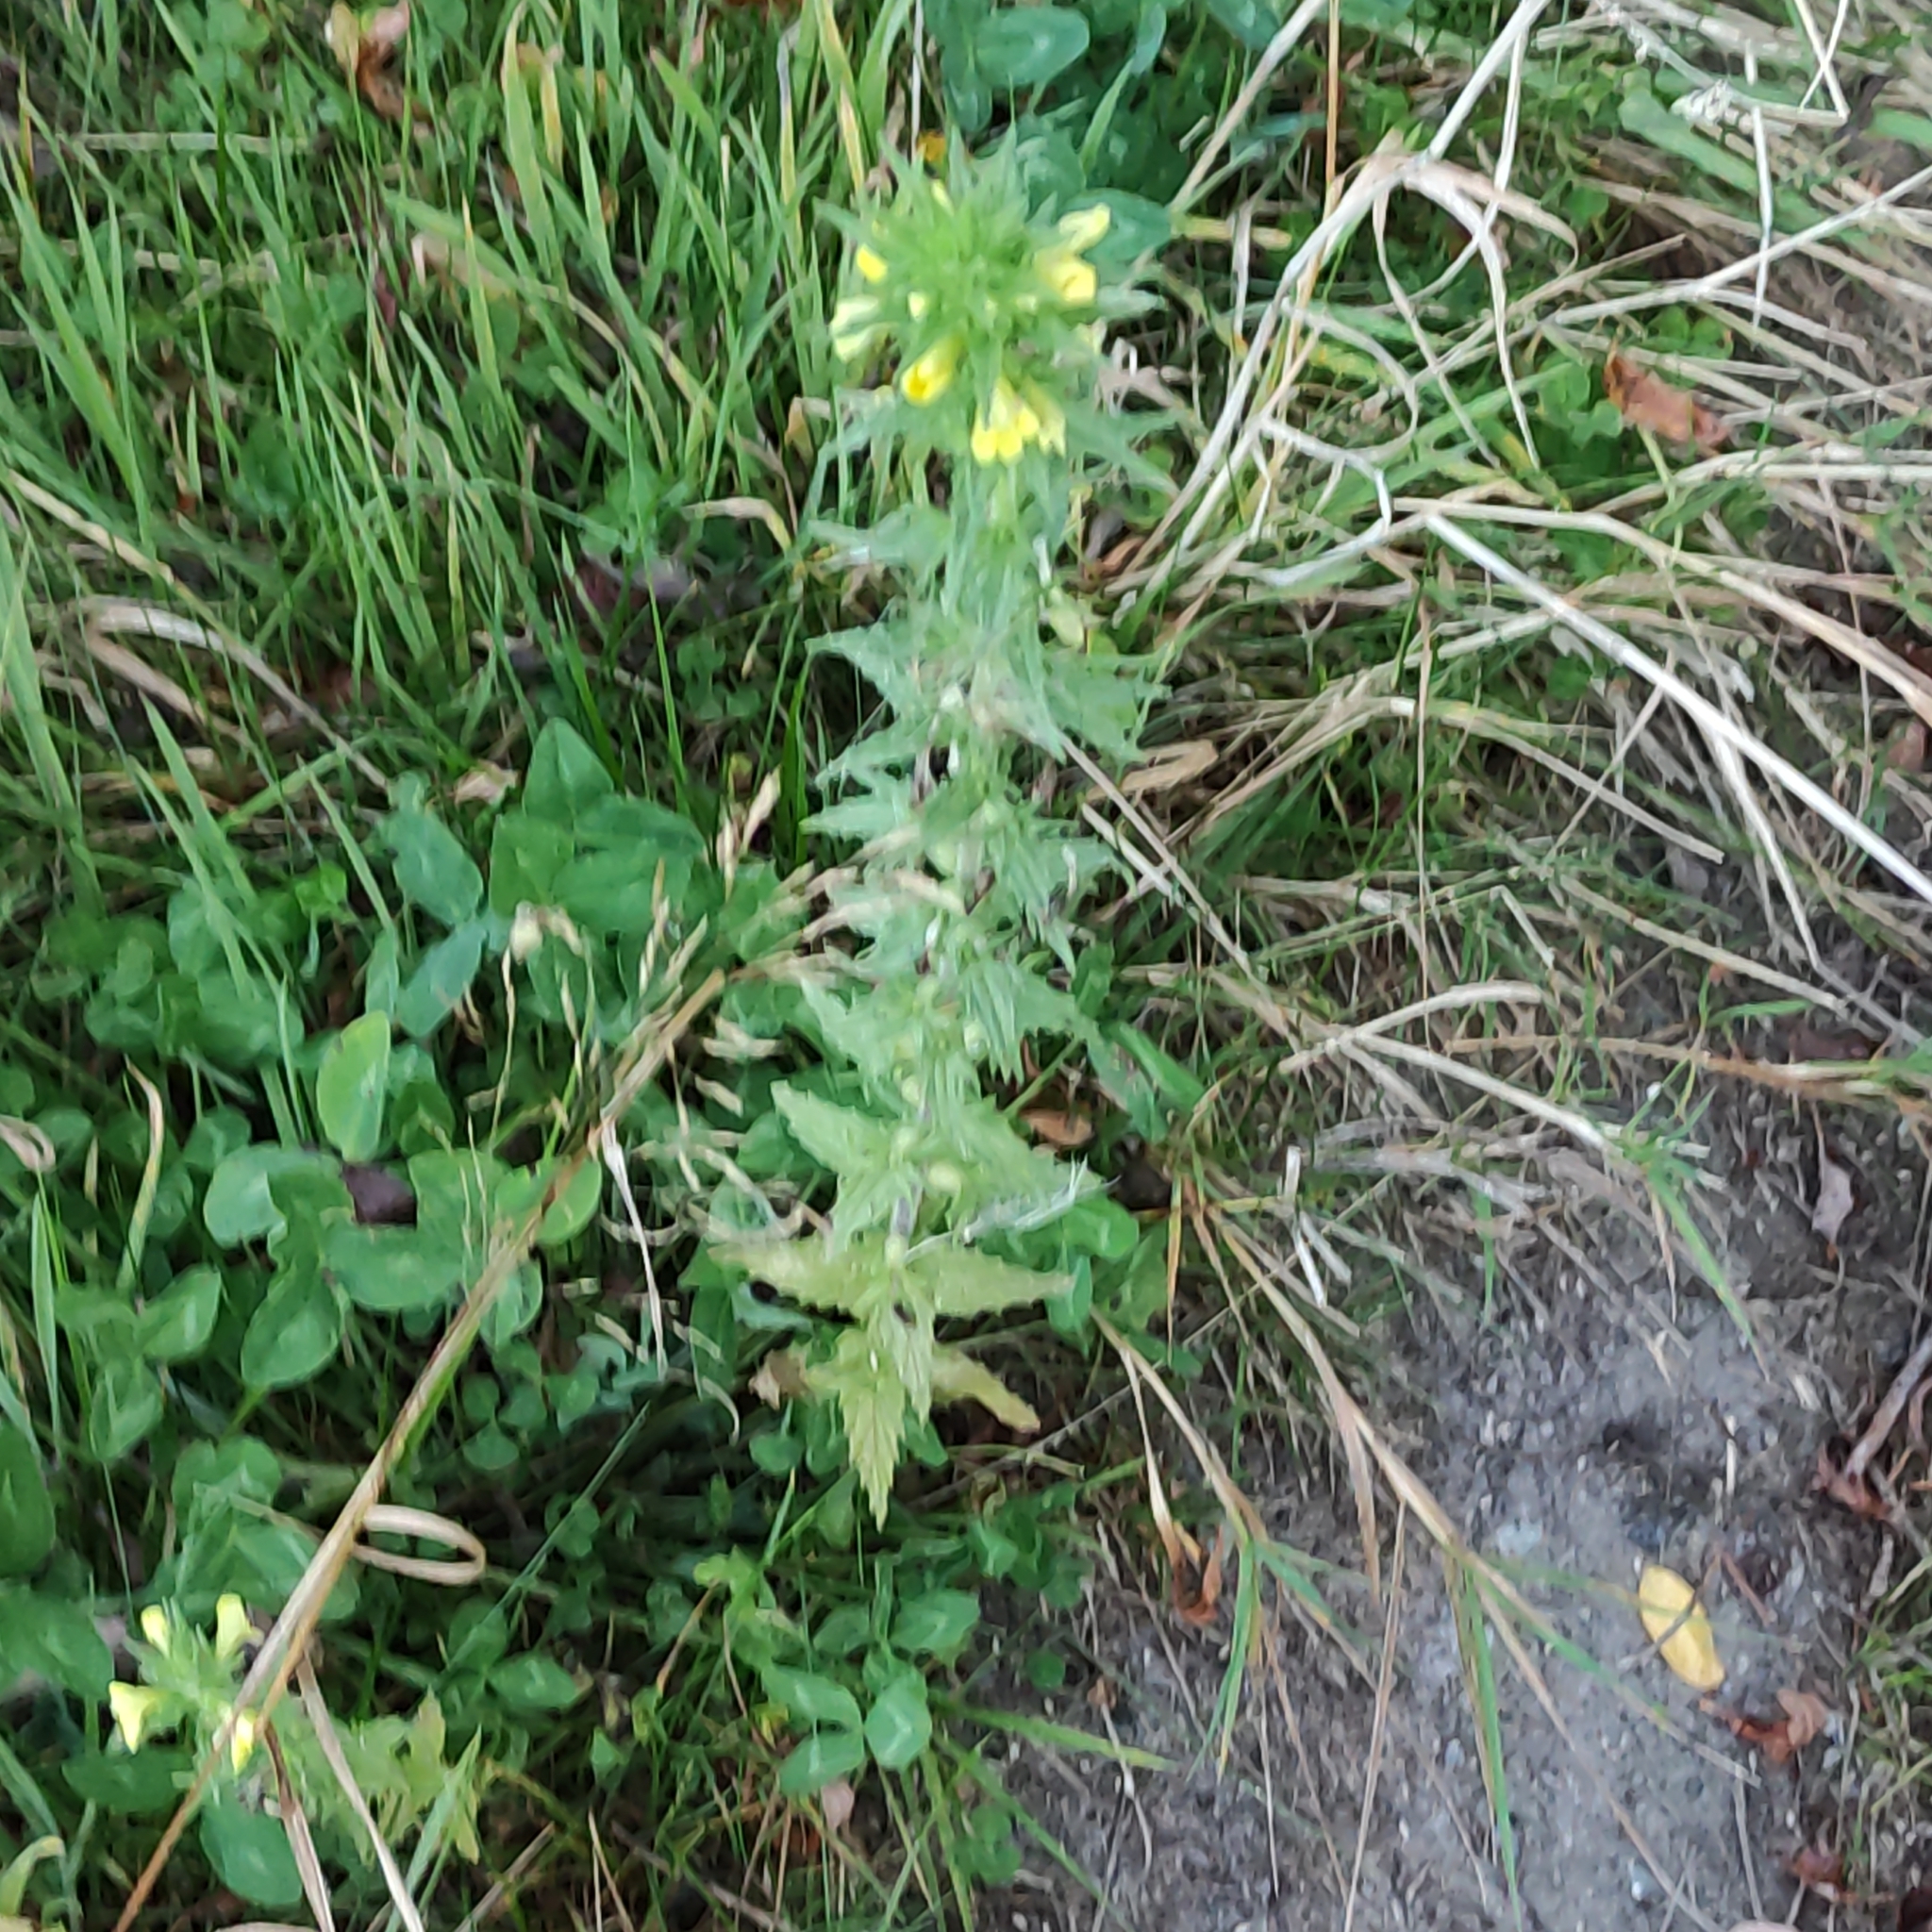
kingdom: Plantae
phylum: Tracheophyta
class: Magnoliopsida
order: Lamiales
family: Orobanchaceae
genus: Bellardia
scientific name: Bellardia viscosa
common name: Sticky parentucellia
